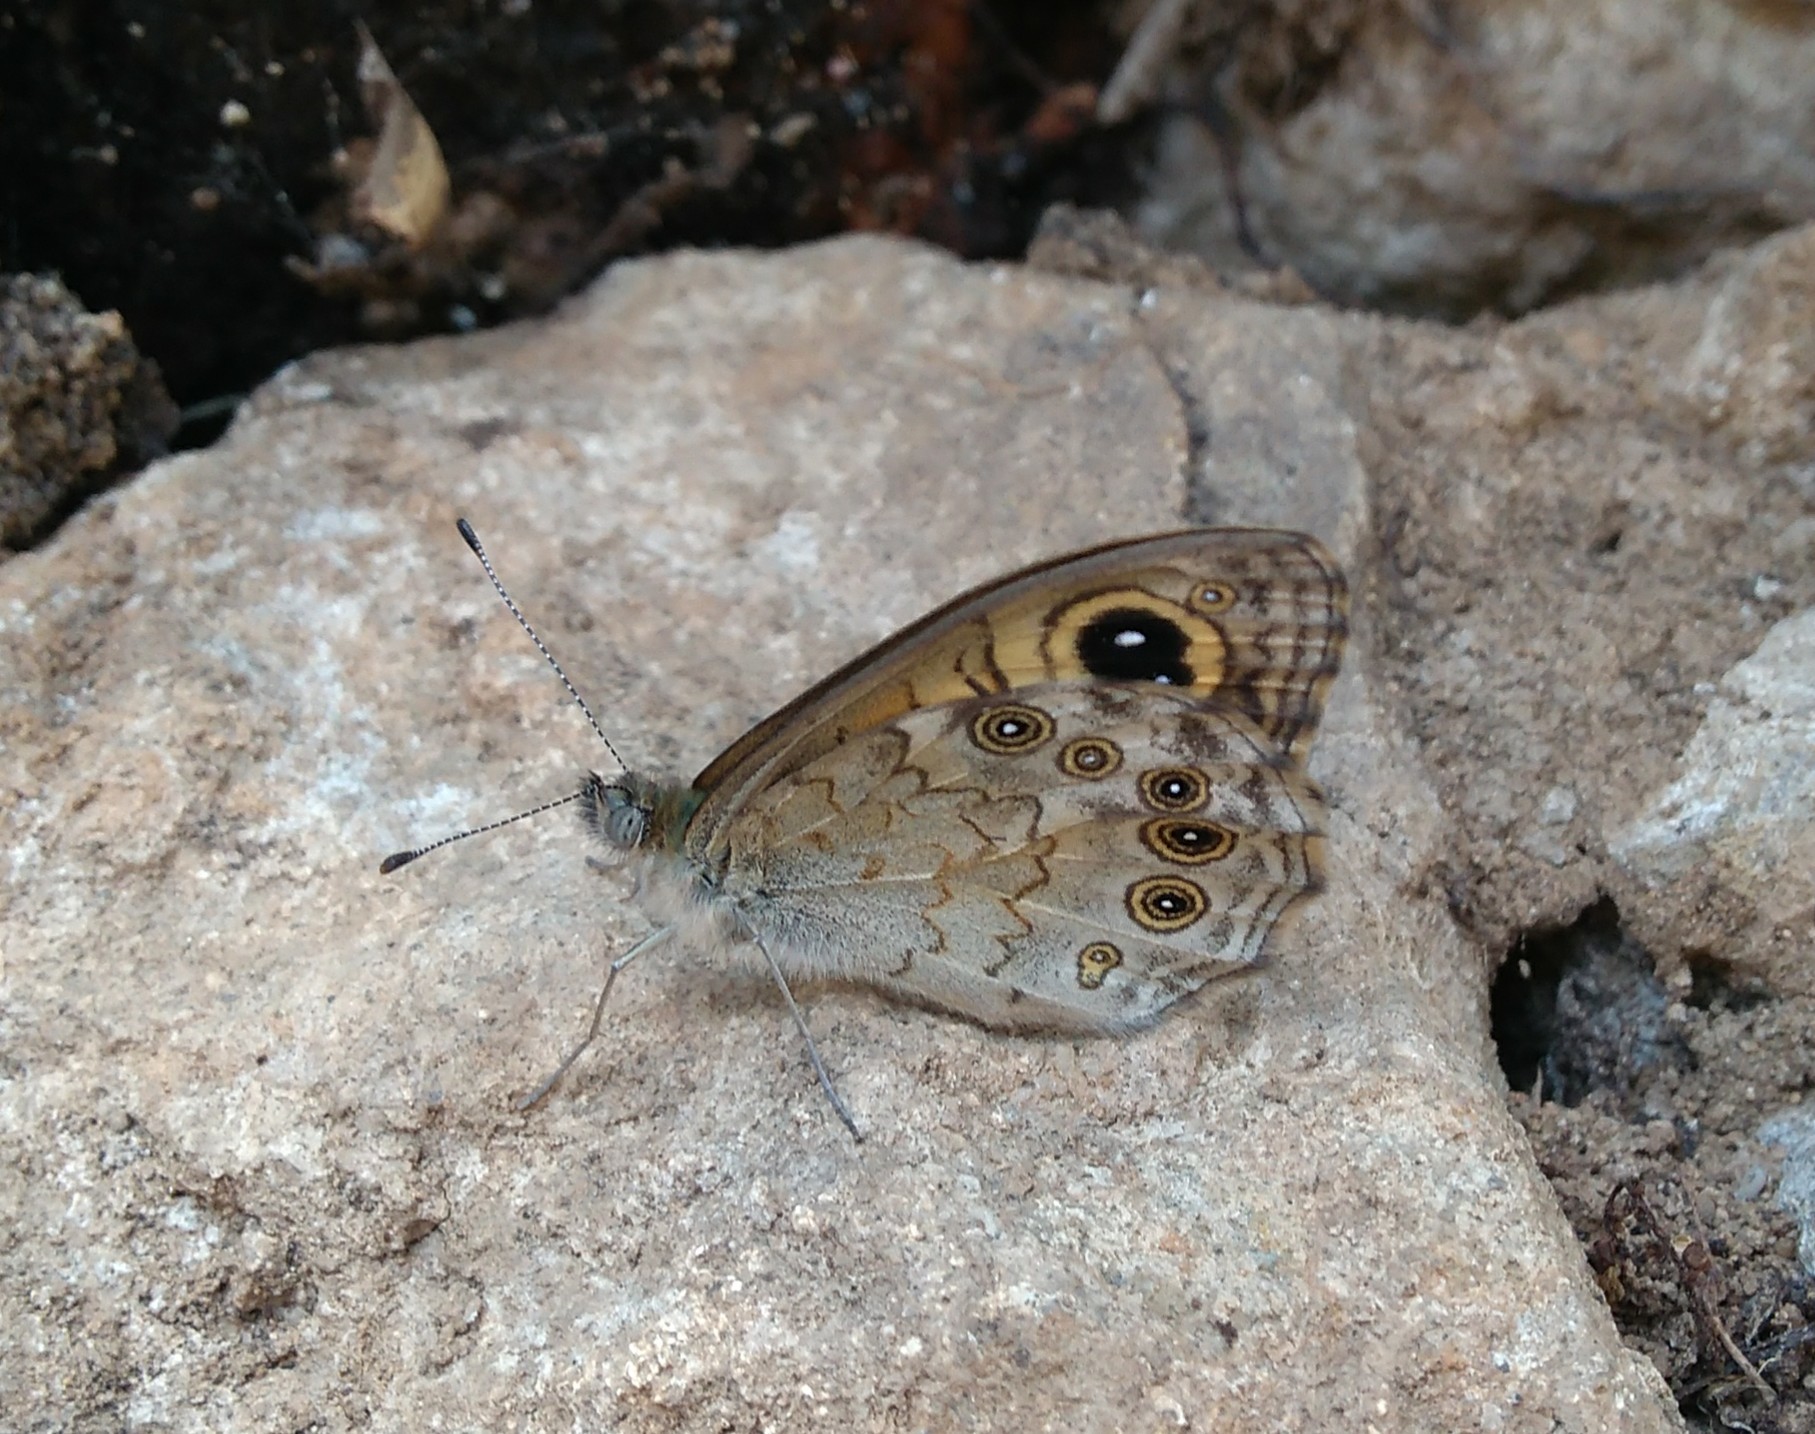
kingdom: Animalia
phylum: Arthropoda
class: Insecta
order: Lepidoptera
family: Nymphalidae
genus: Pararge
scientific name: Pararge Lasiommata maera
